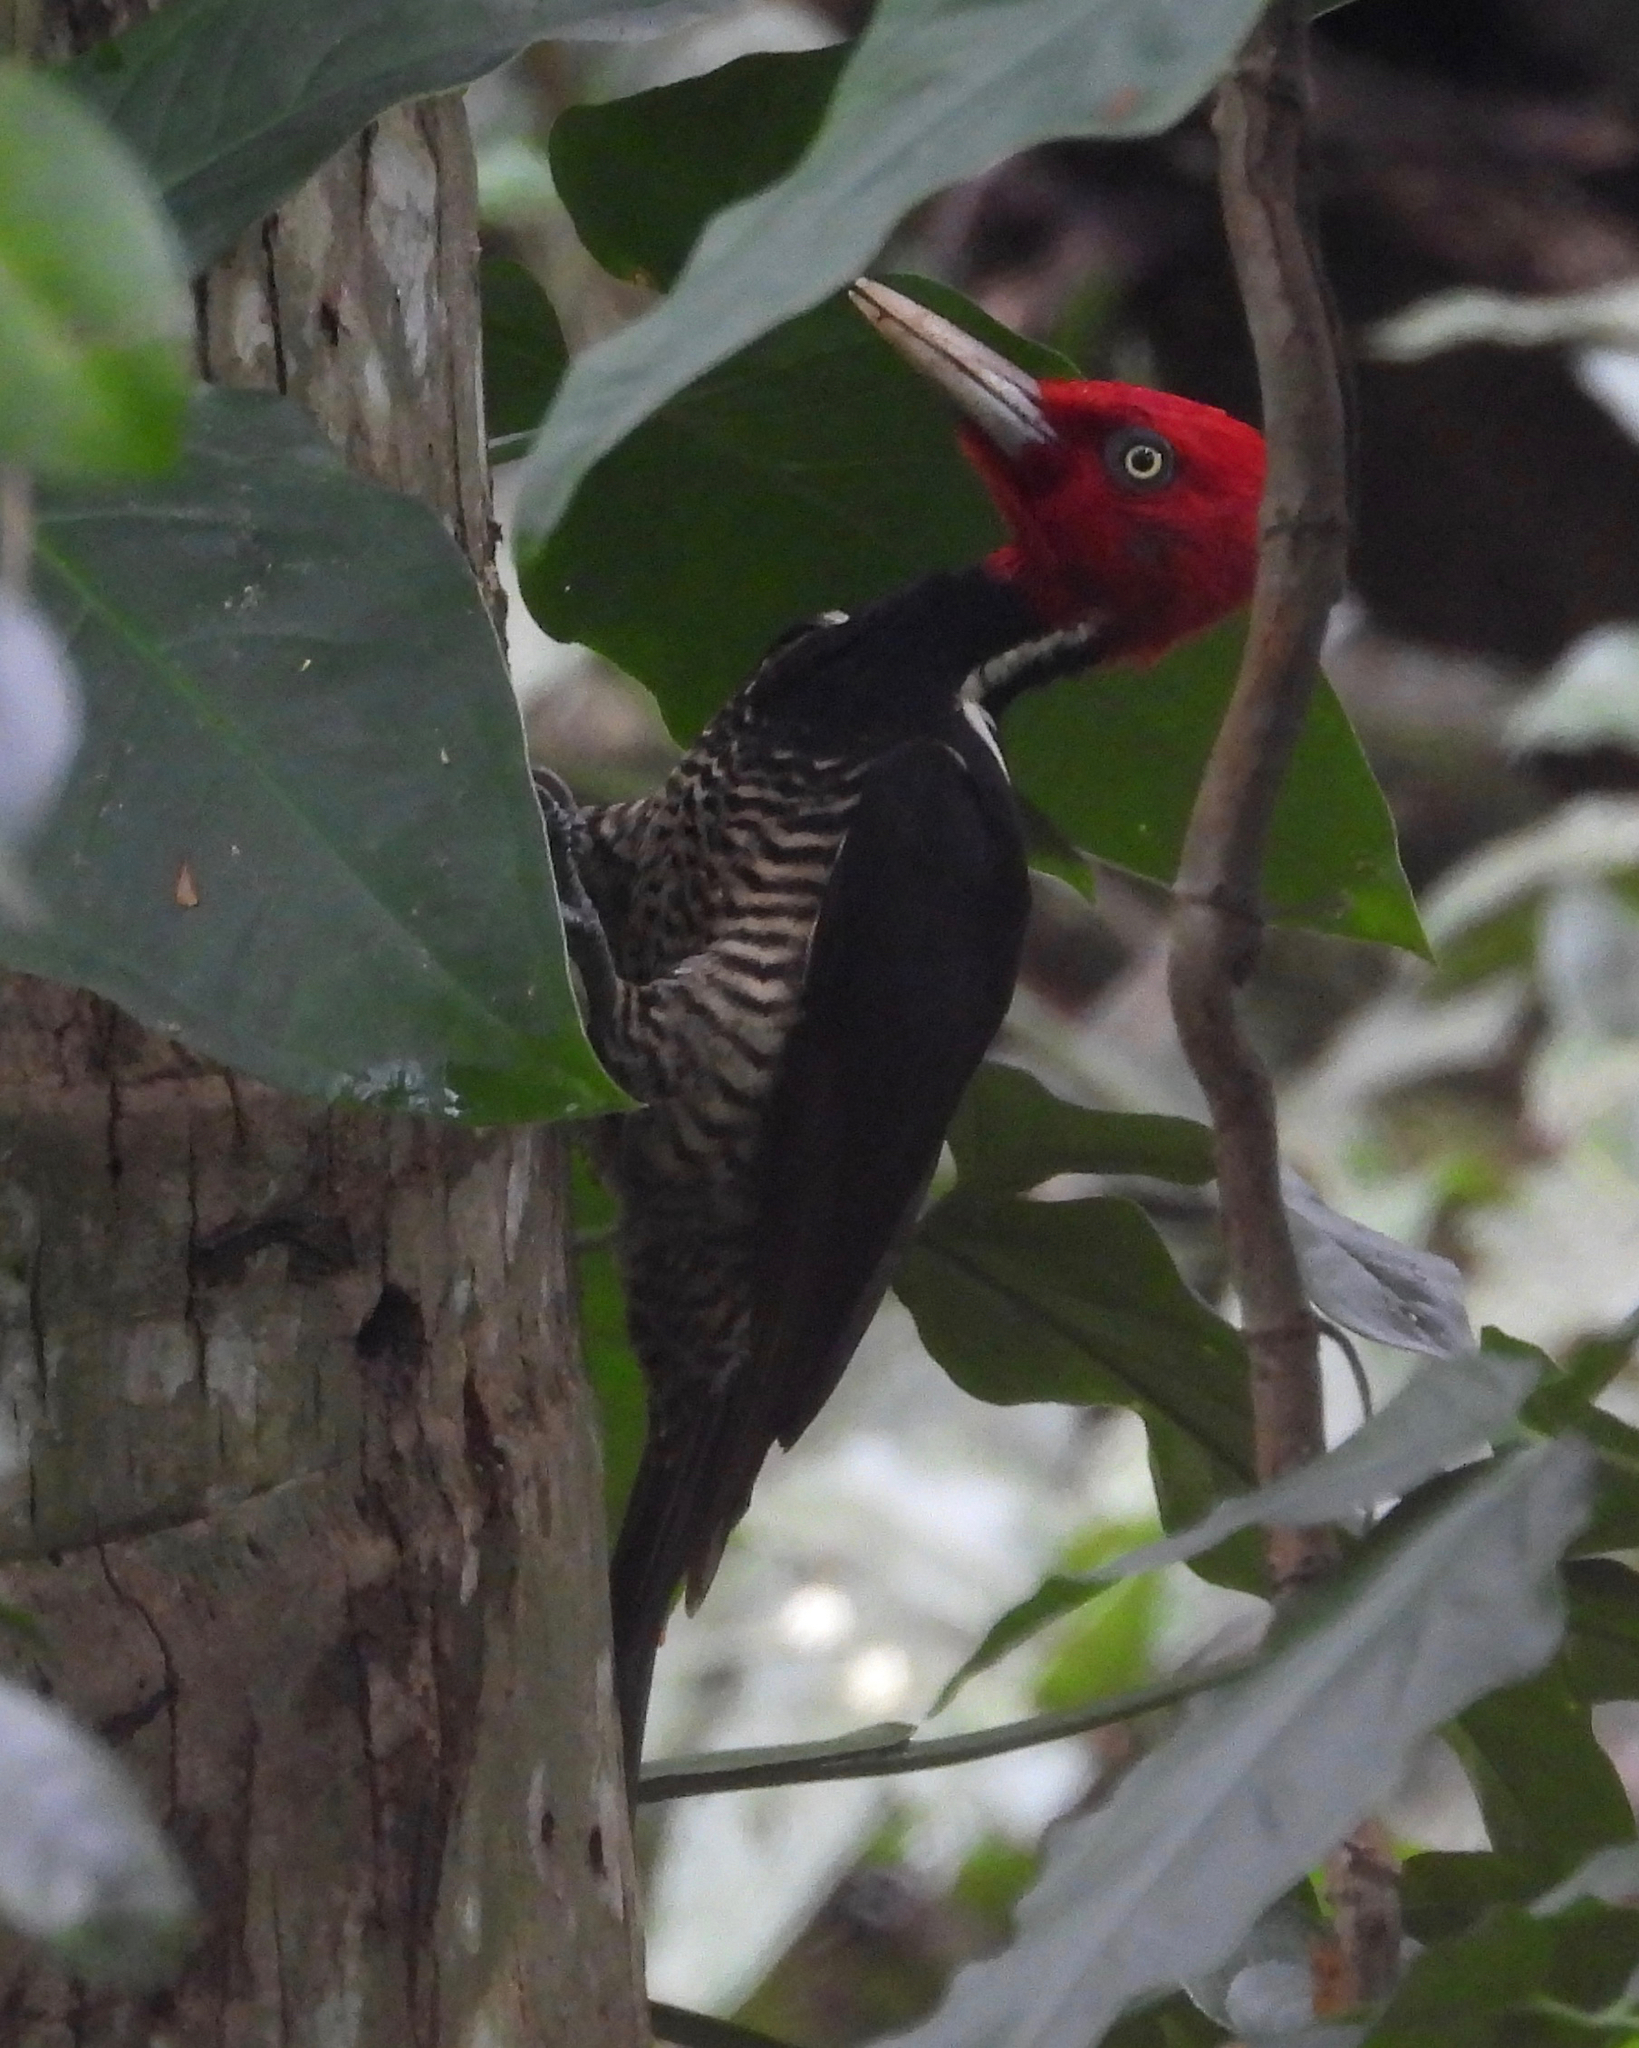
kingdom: Animalia
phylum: Chordata
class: Aves
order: Piciformes
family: Picidae
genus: Campephilus
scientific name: Campephilus guatemalensis
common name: Pale-billed woodpecker
